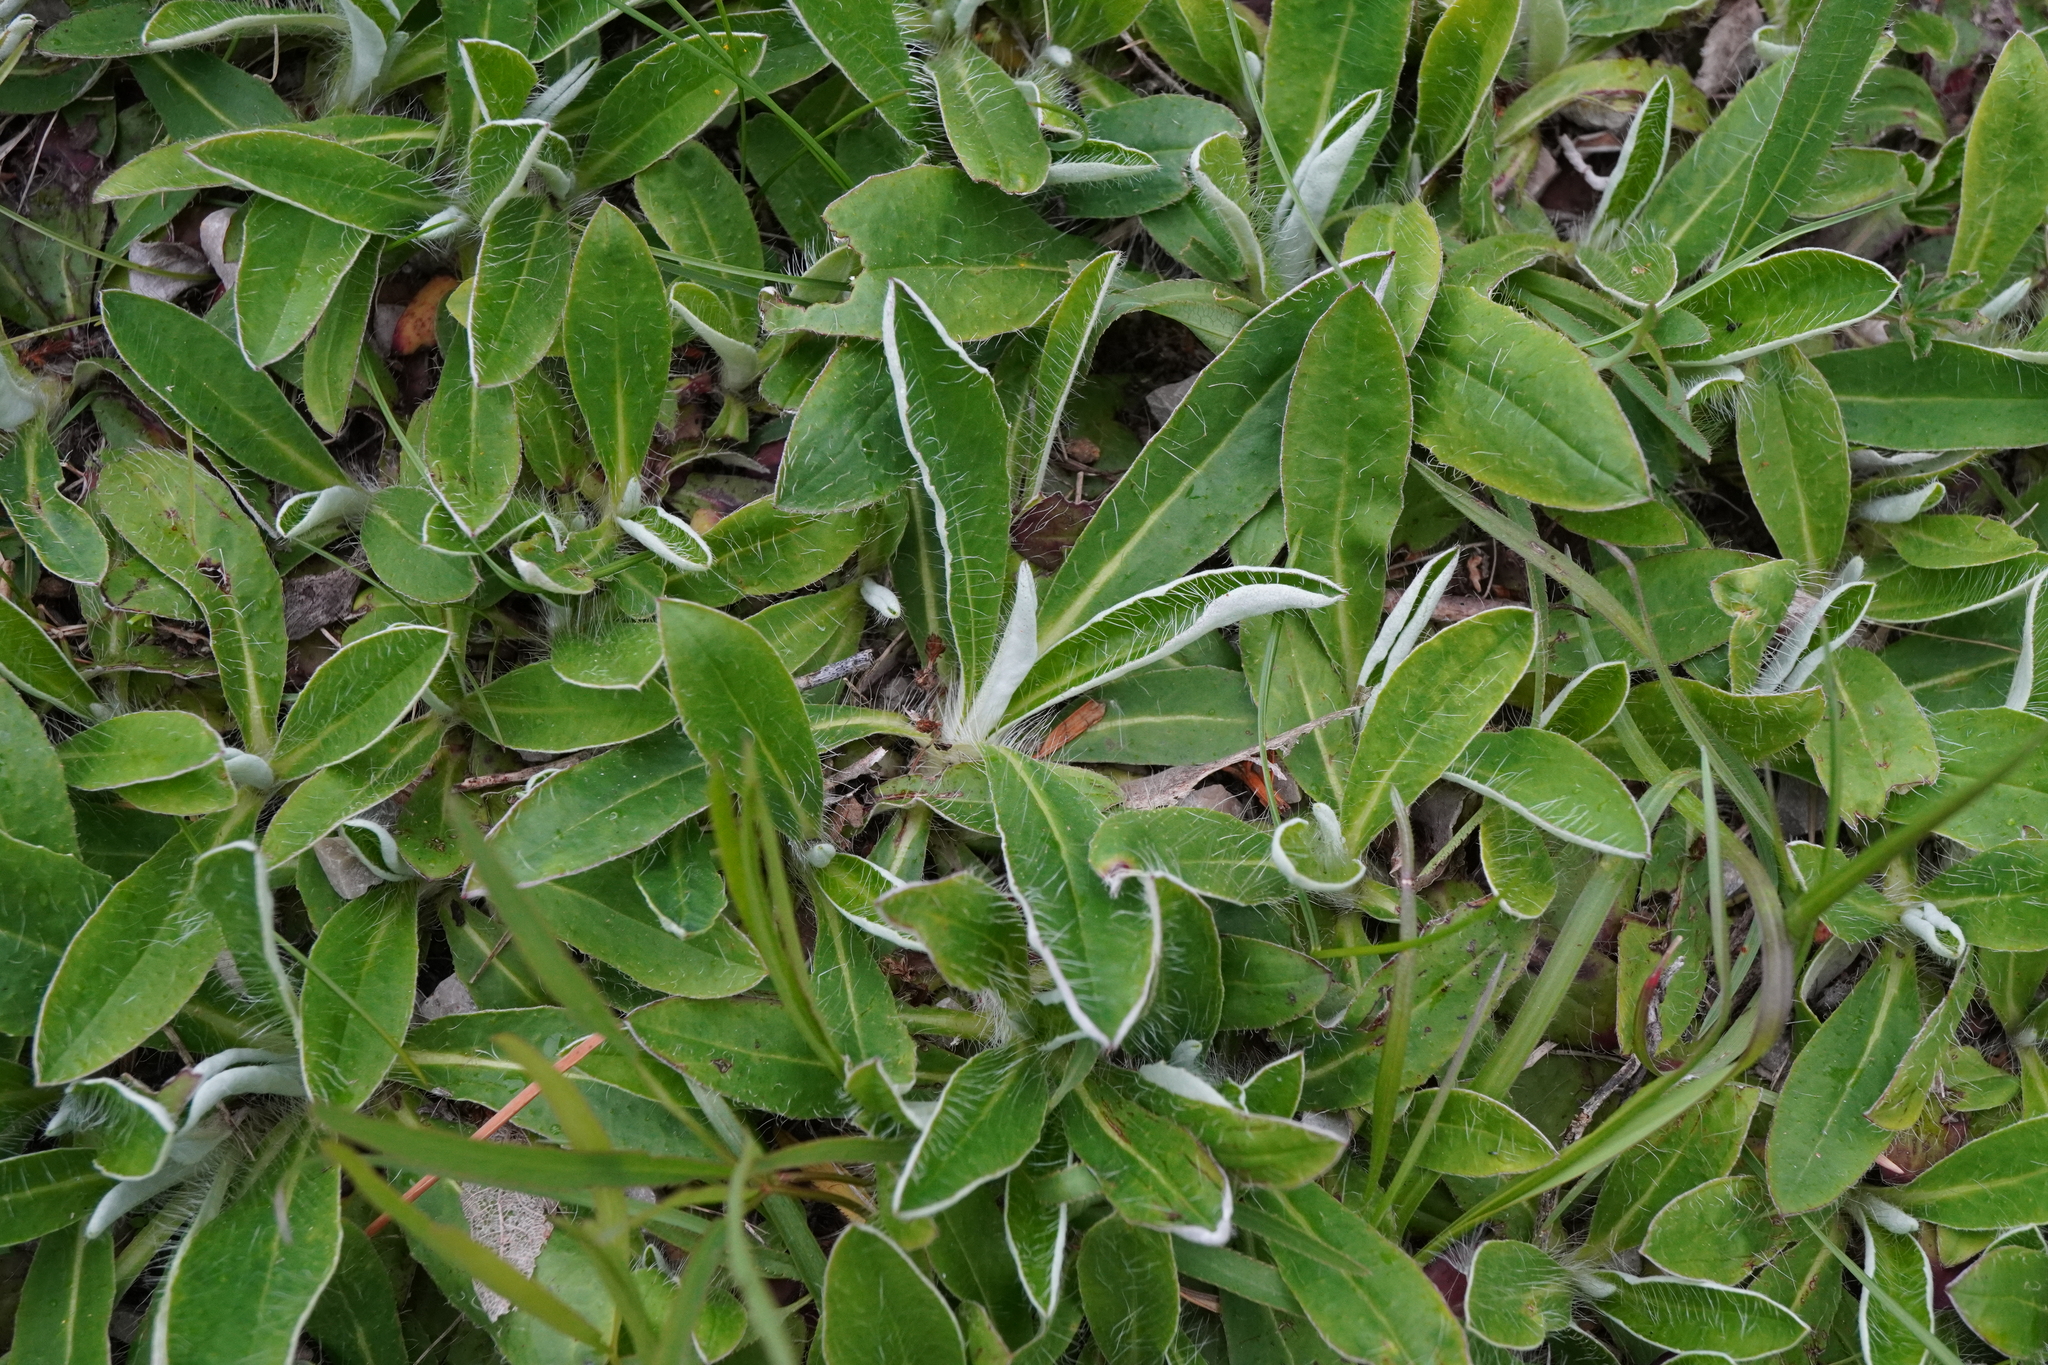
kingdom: Plantae
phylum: Tracheophyta
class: Magnoliopsida
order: Asterales
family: Asteraceae
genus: Pilosella
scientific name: Pilosella officinarum
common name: Mouse-ear hawkweed
